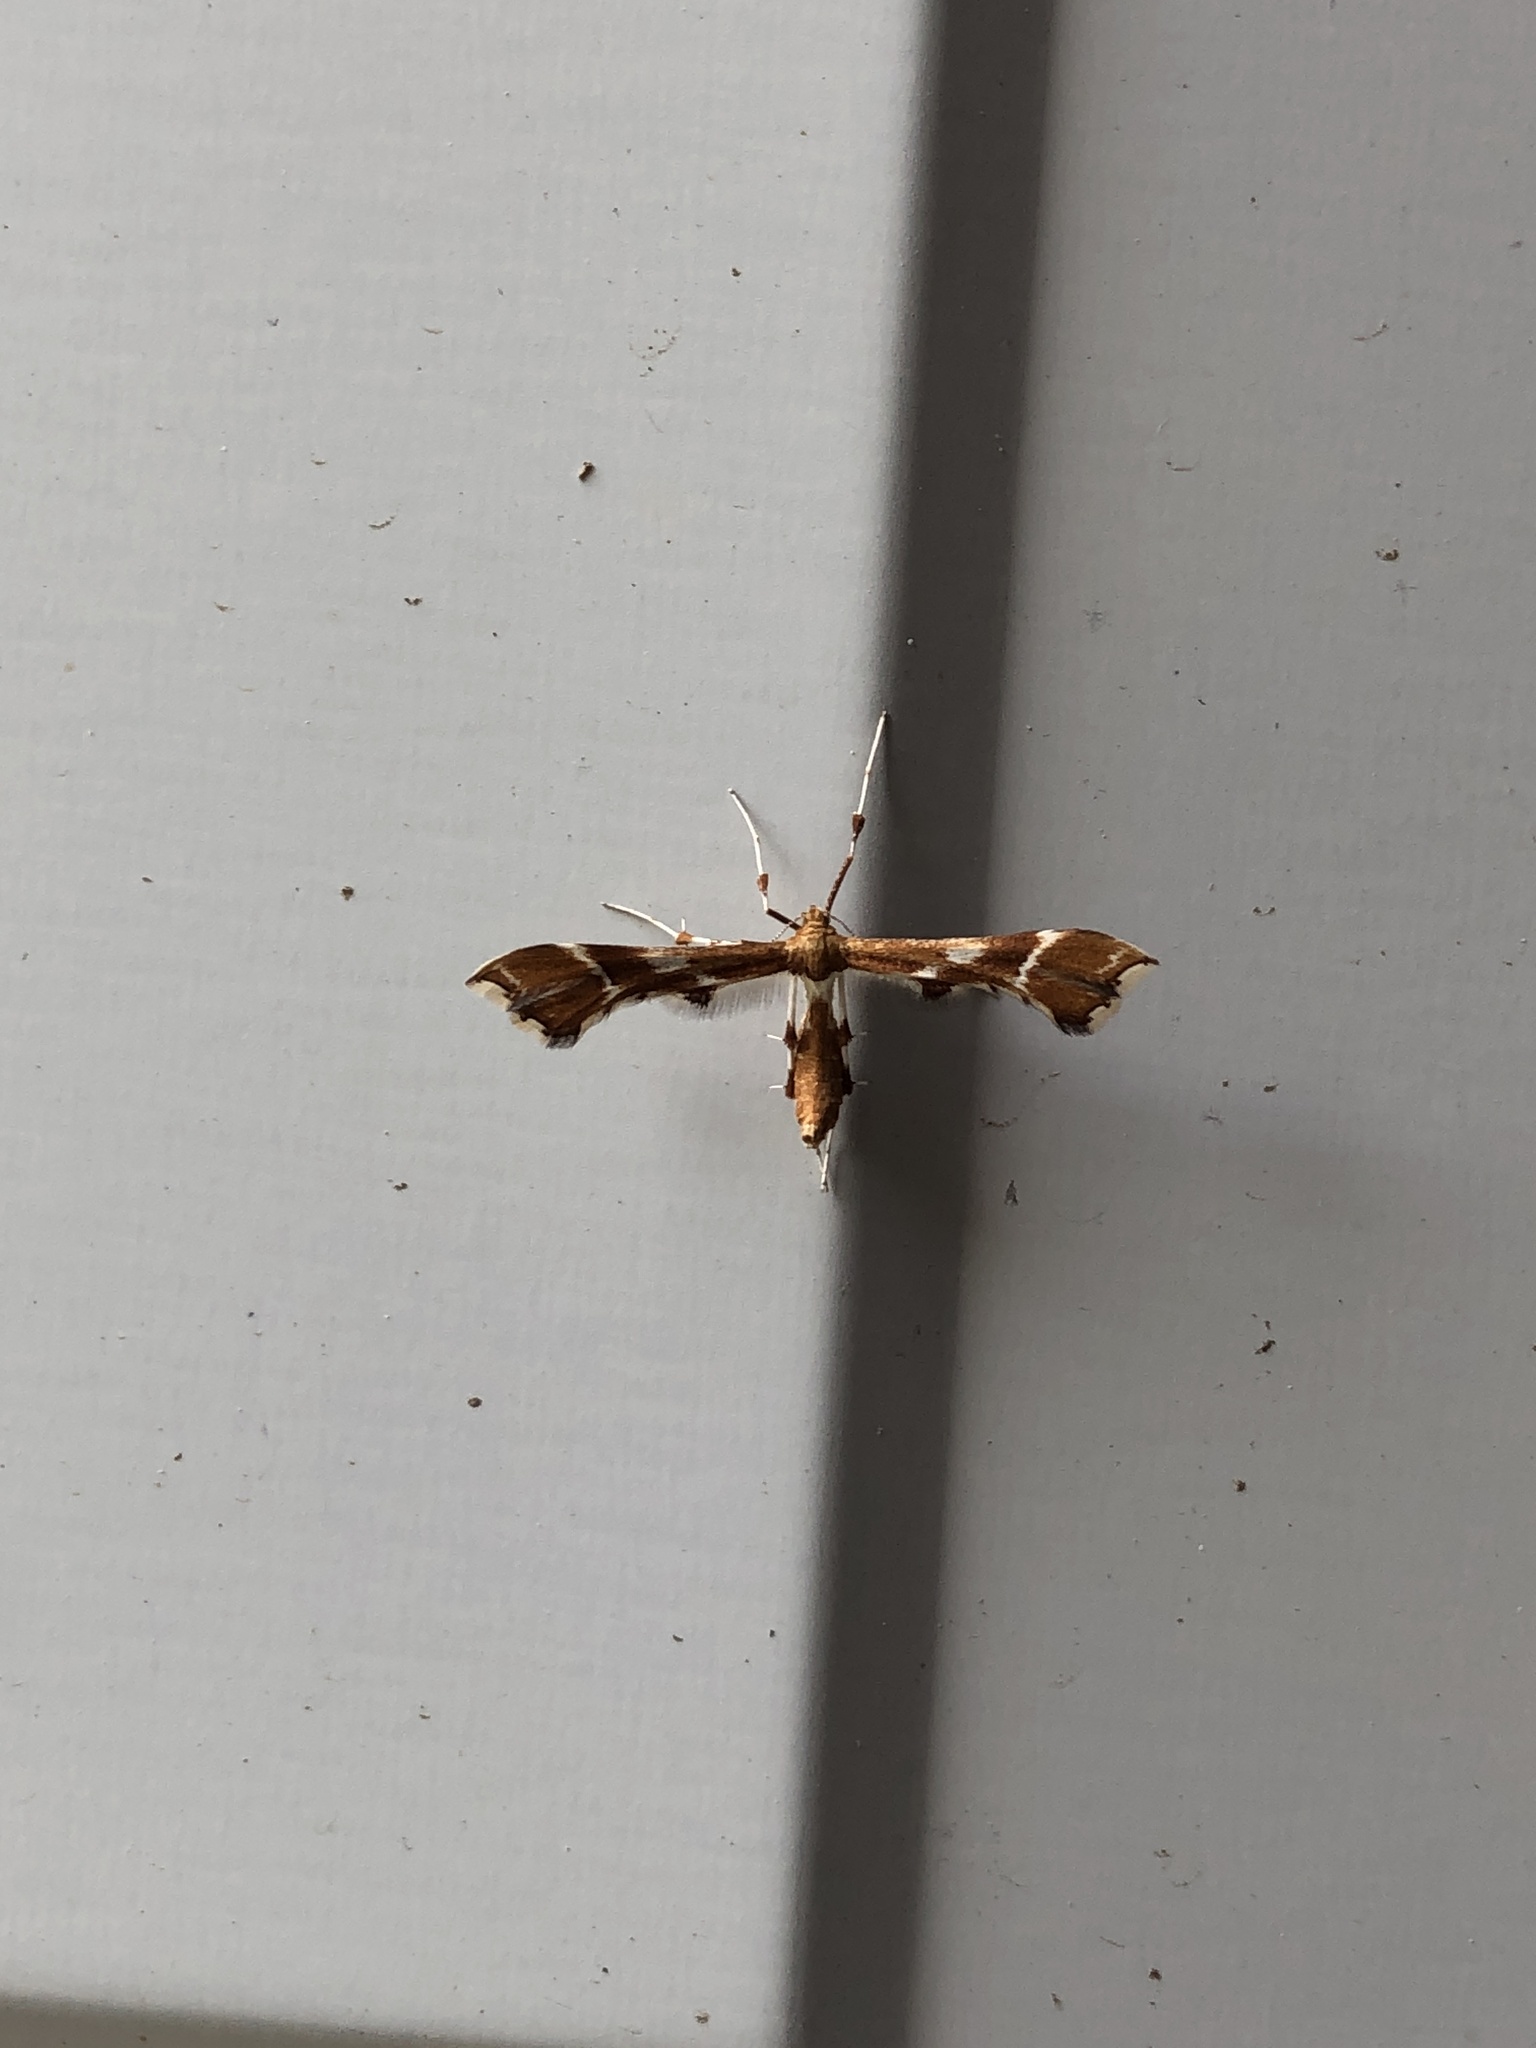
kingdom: Animalia
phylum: Arthropoda
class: Insecta
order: Lepidoptera
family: Pterophoridae
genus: Cnaemidophorus
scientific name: Cnaemidophorus rhododactyla
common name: Rose plume
